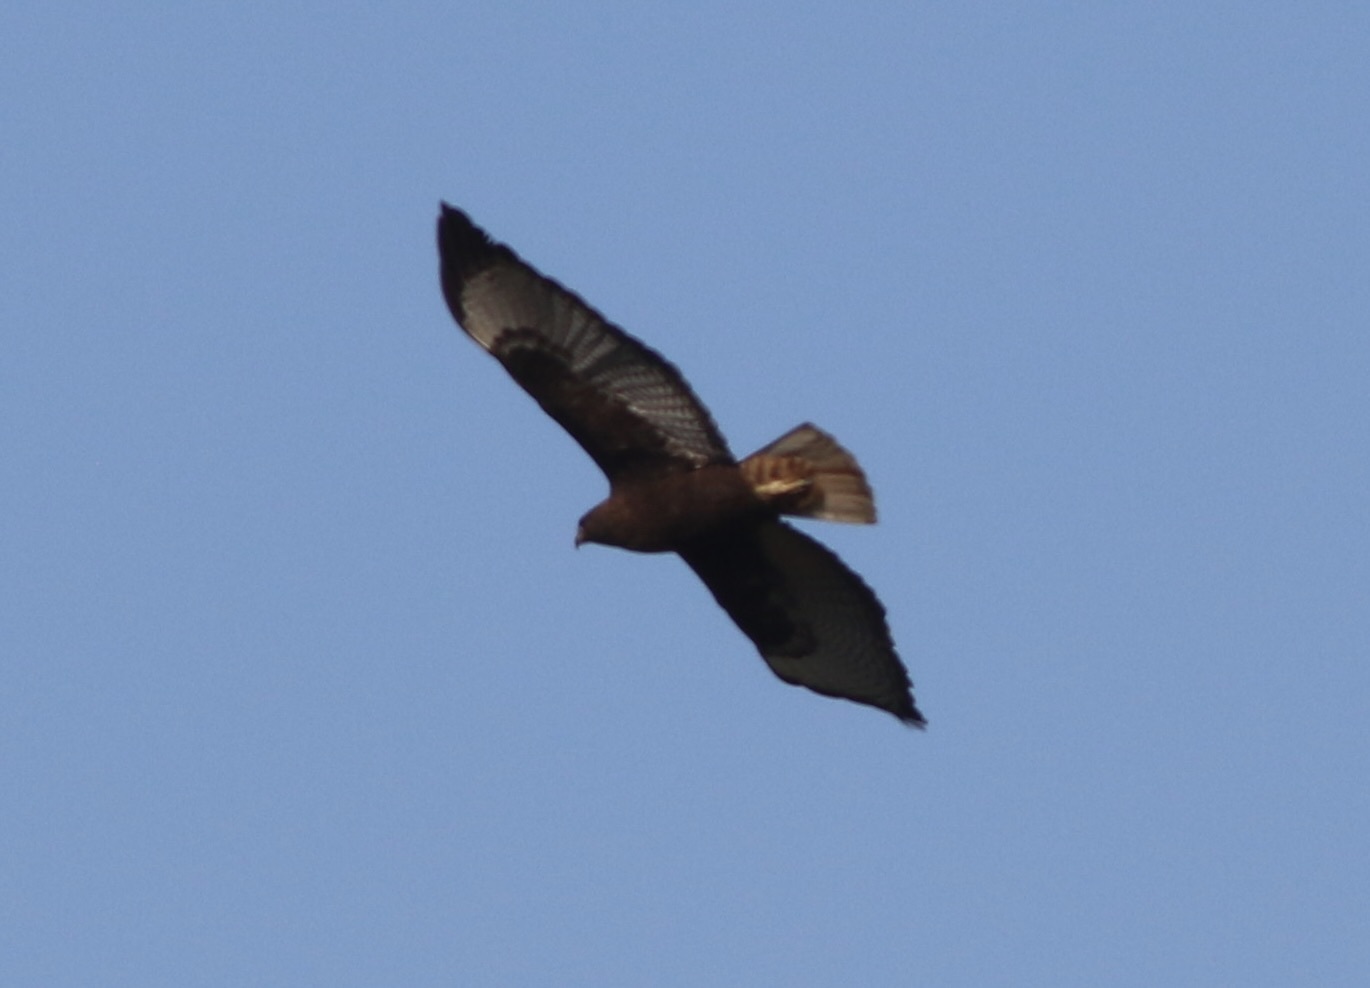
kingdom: Animalia
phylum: Chordata
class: Aves
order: Accipitriformes
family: Accipitridae
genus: Buteo
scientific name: Buteo jamaicensis
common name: Red-tailed hawk
